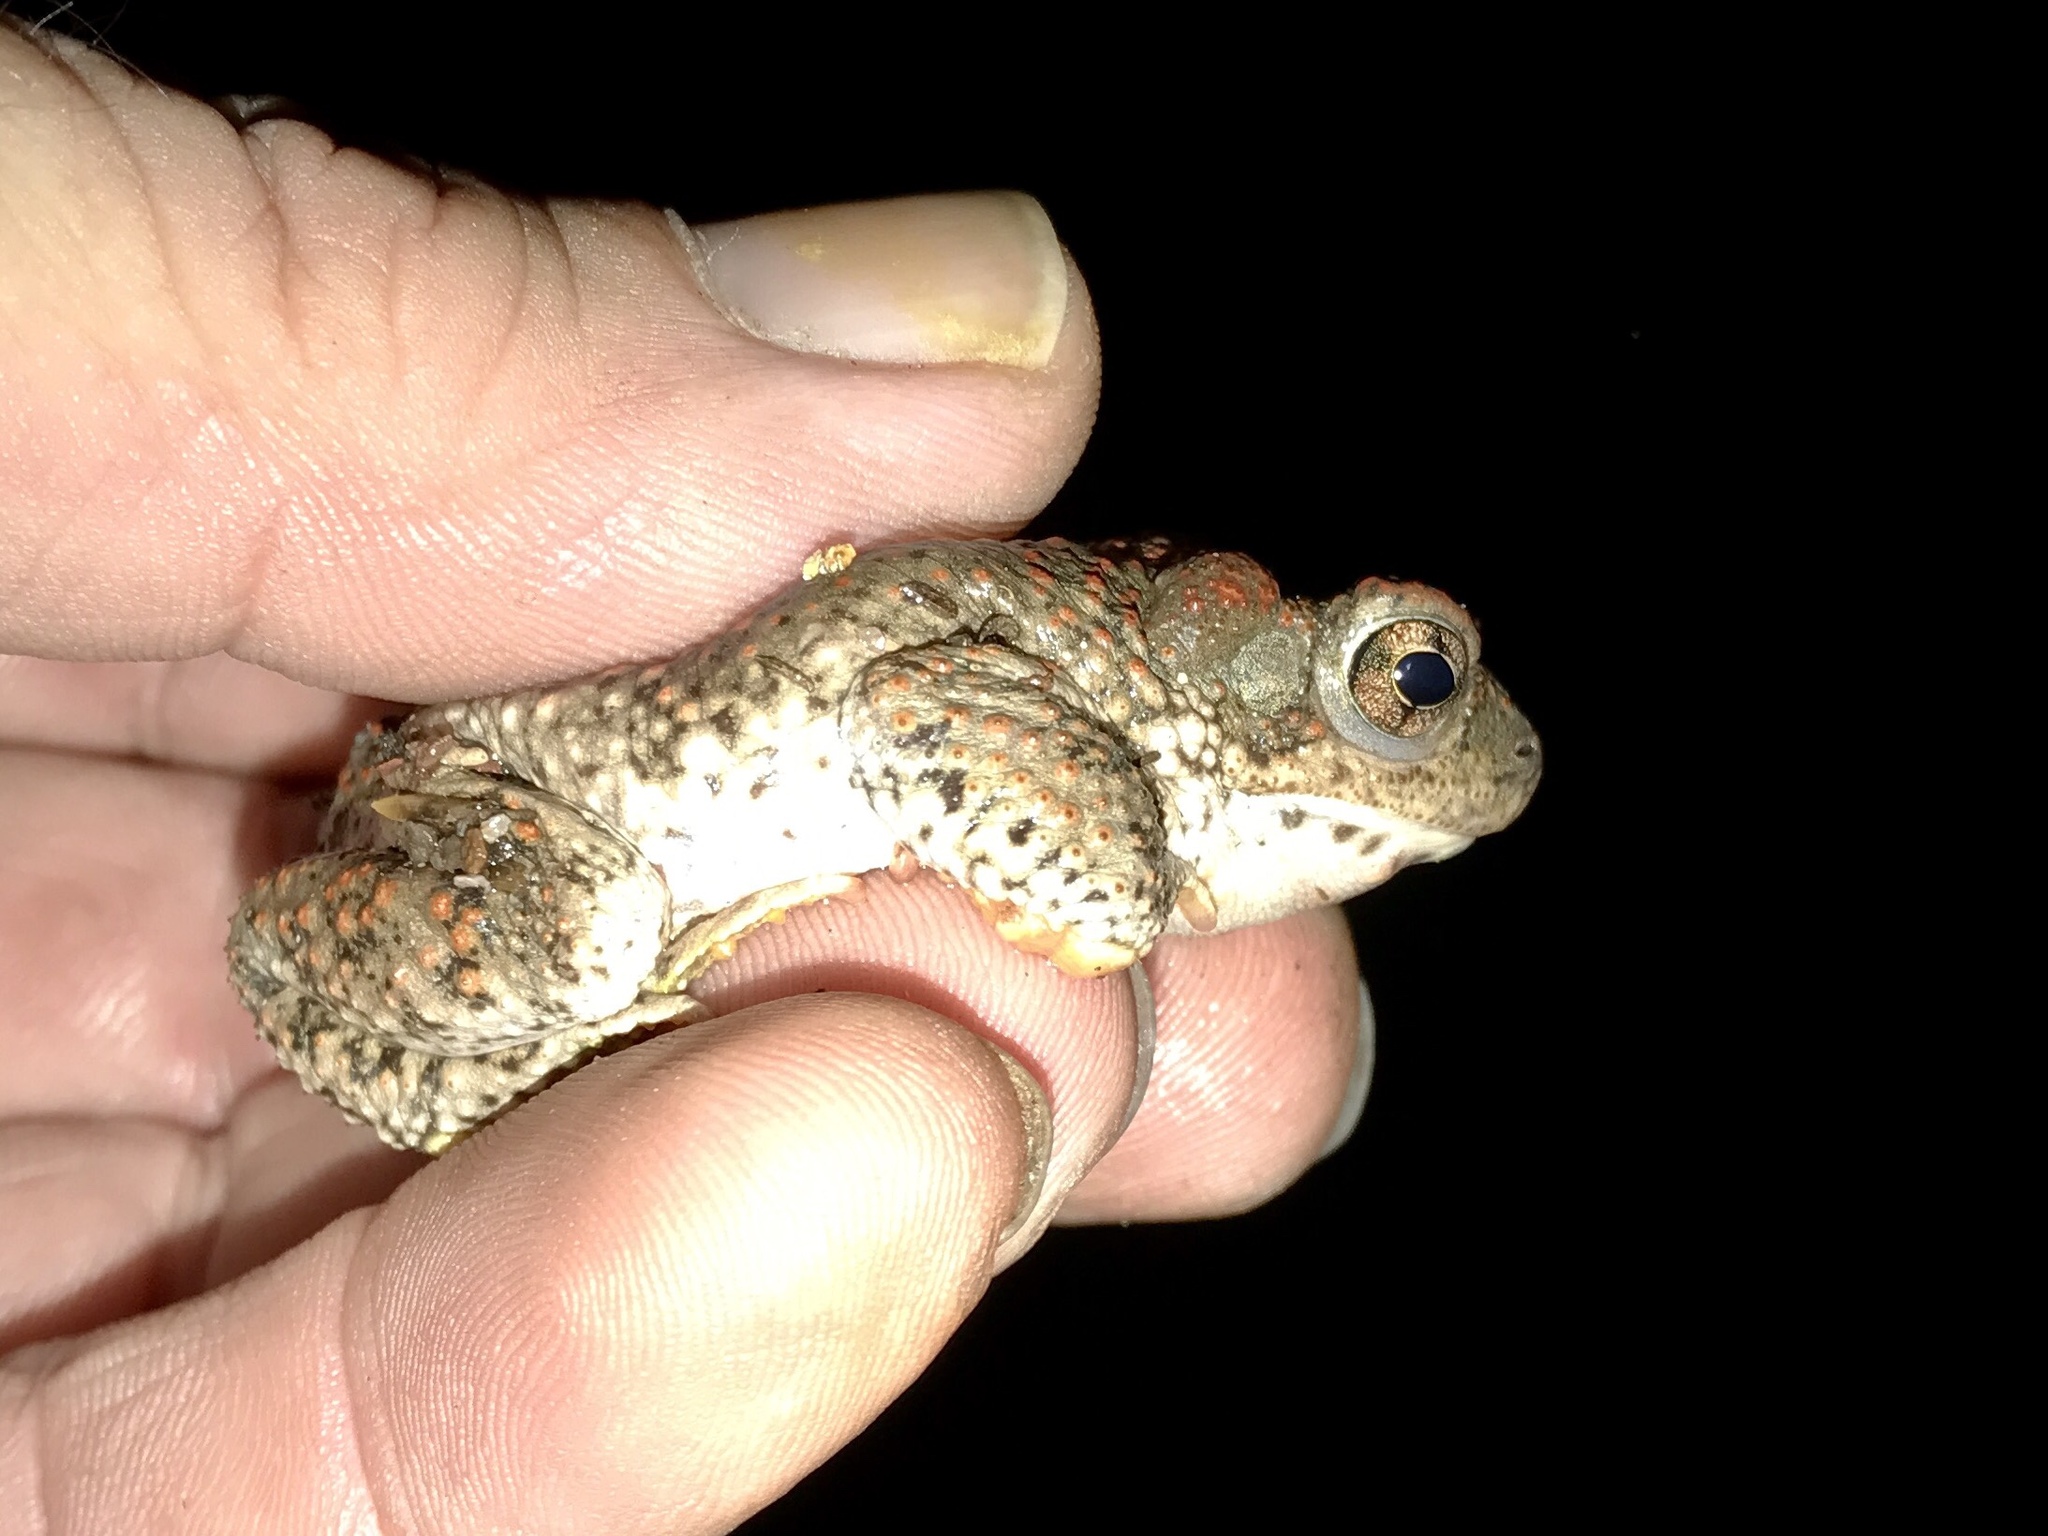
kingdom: Animalia
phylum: Chordata
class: Amphibia
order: Anura
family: Bufonidae
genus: Anaxyrus
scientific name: Anaxyrus punctatus
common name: Red-spotted toad
